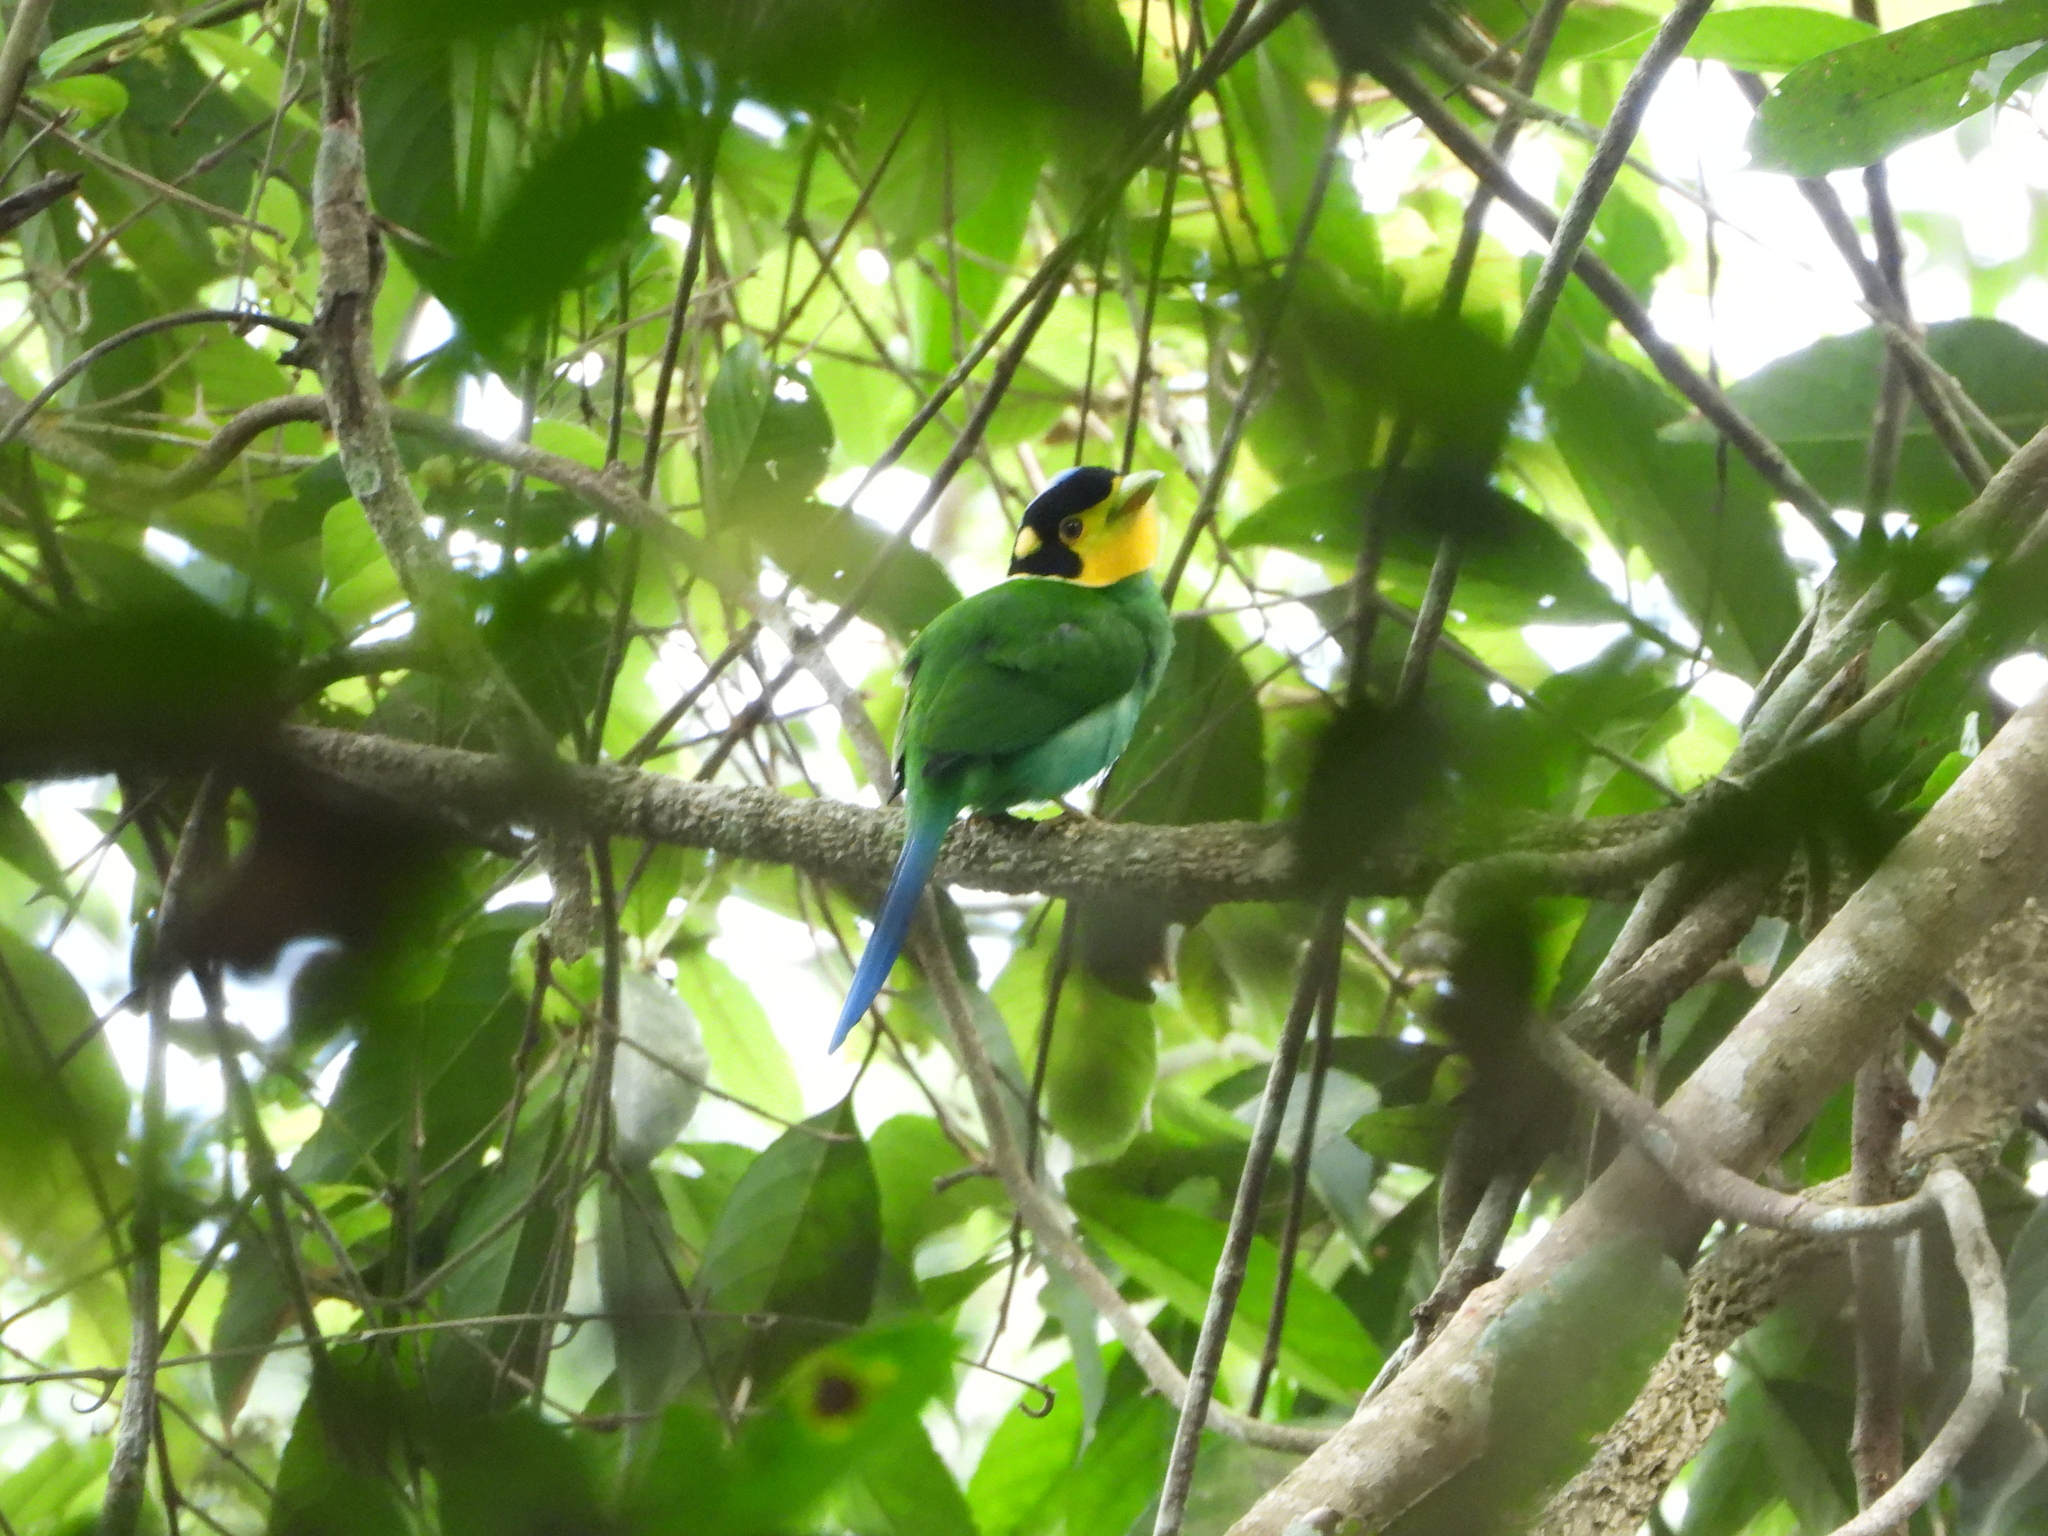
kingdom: Animalia
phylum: Chordata
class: Aves
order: Passeriformes
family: Eurylaimidae
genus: Psarisomus
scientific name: Psarisomus dalhousiae
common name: Long-tailed broadbill
